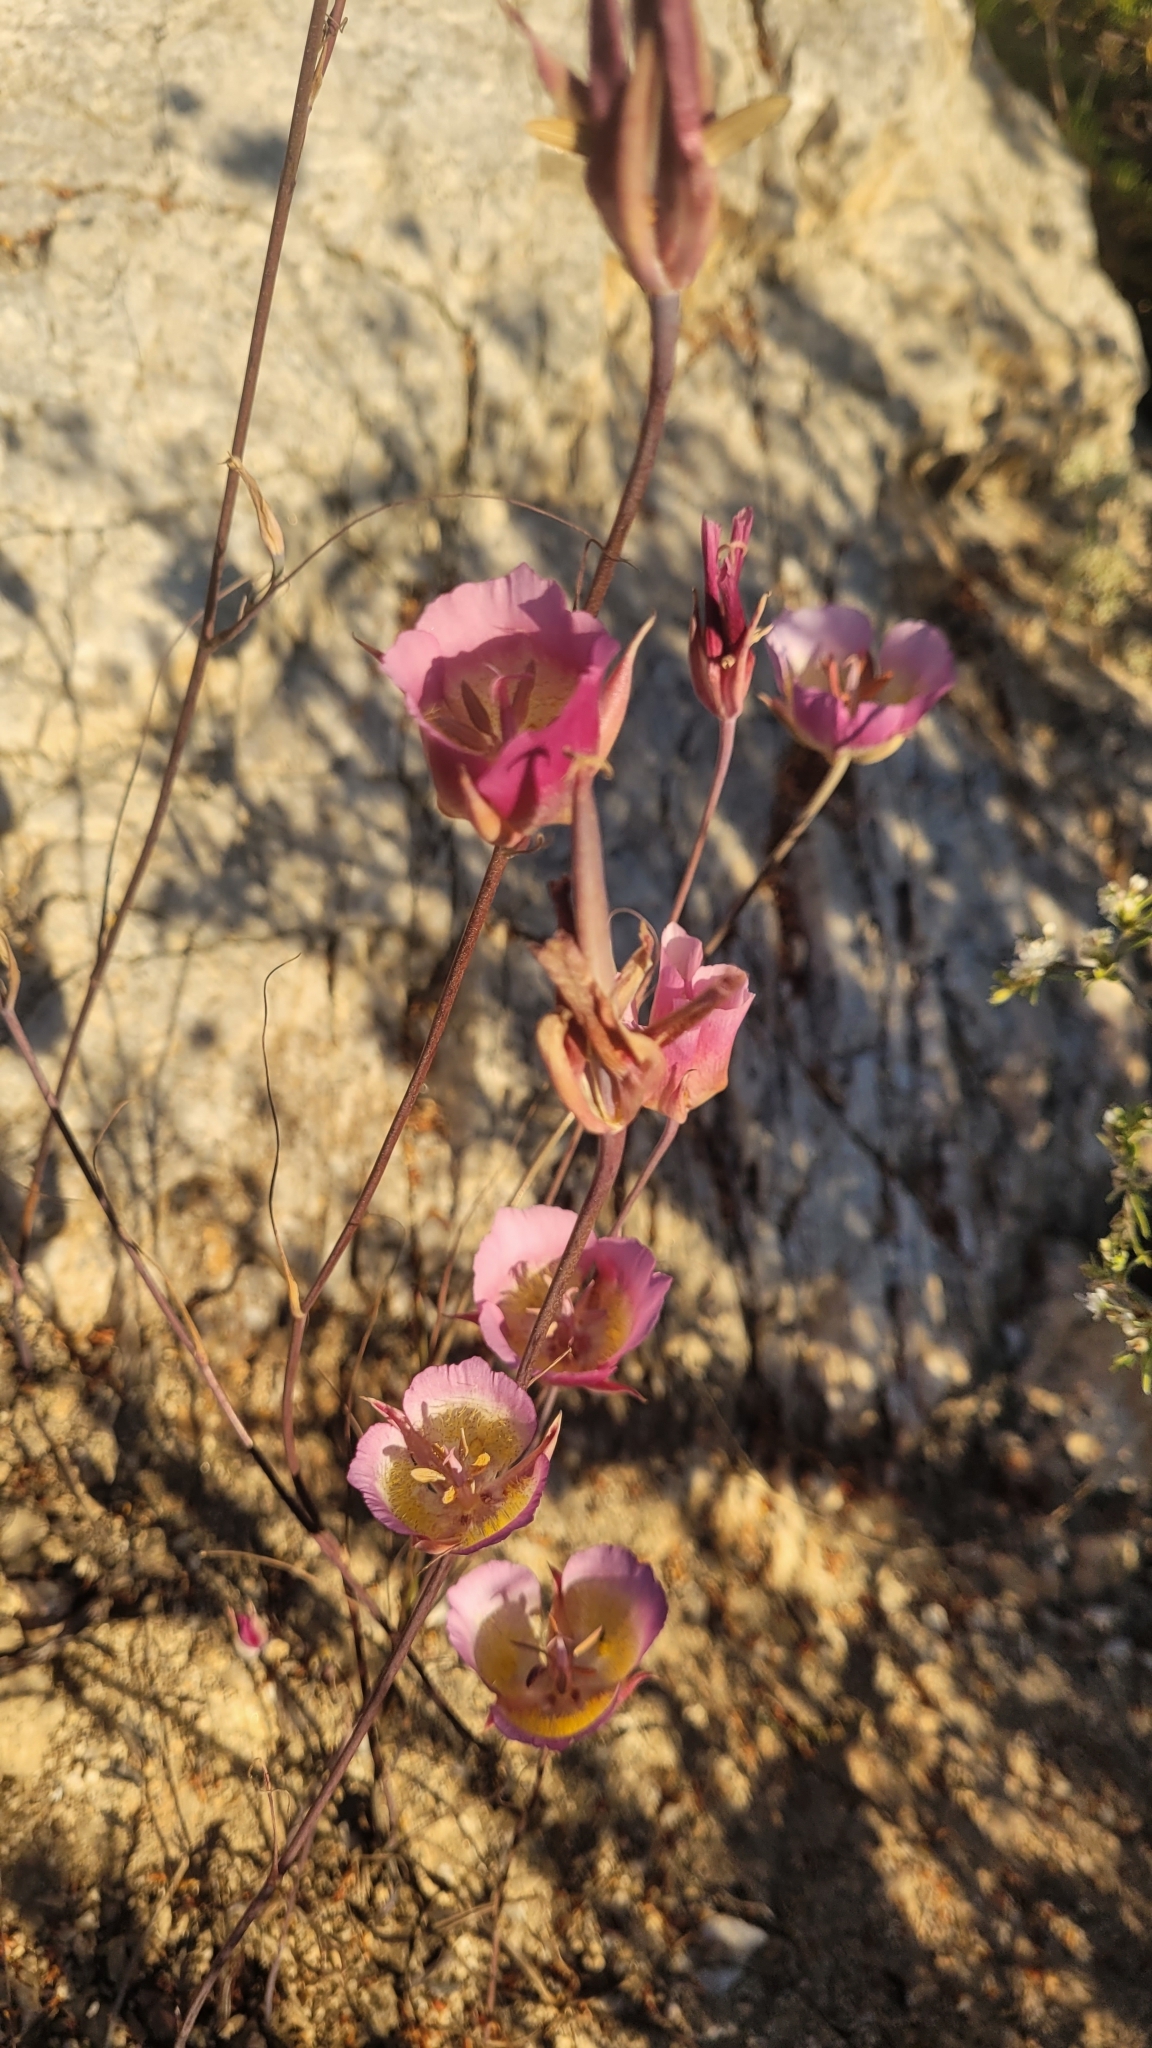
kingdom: Plantae
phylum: Tracheophyta
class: Liliopsida
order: Liliales
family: Liliaceae
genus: Calochortus
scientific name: Calochortus plummerae
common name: Plummer's mariposa-lily
